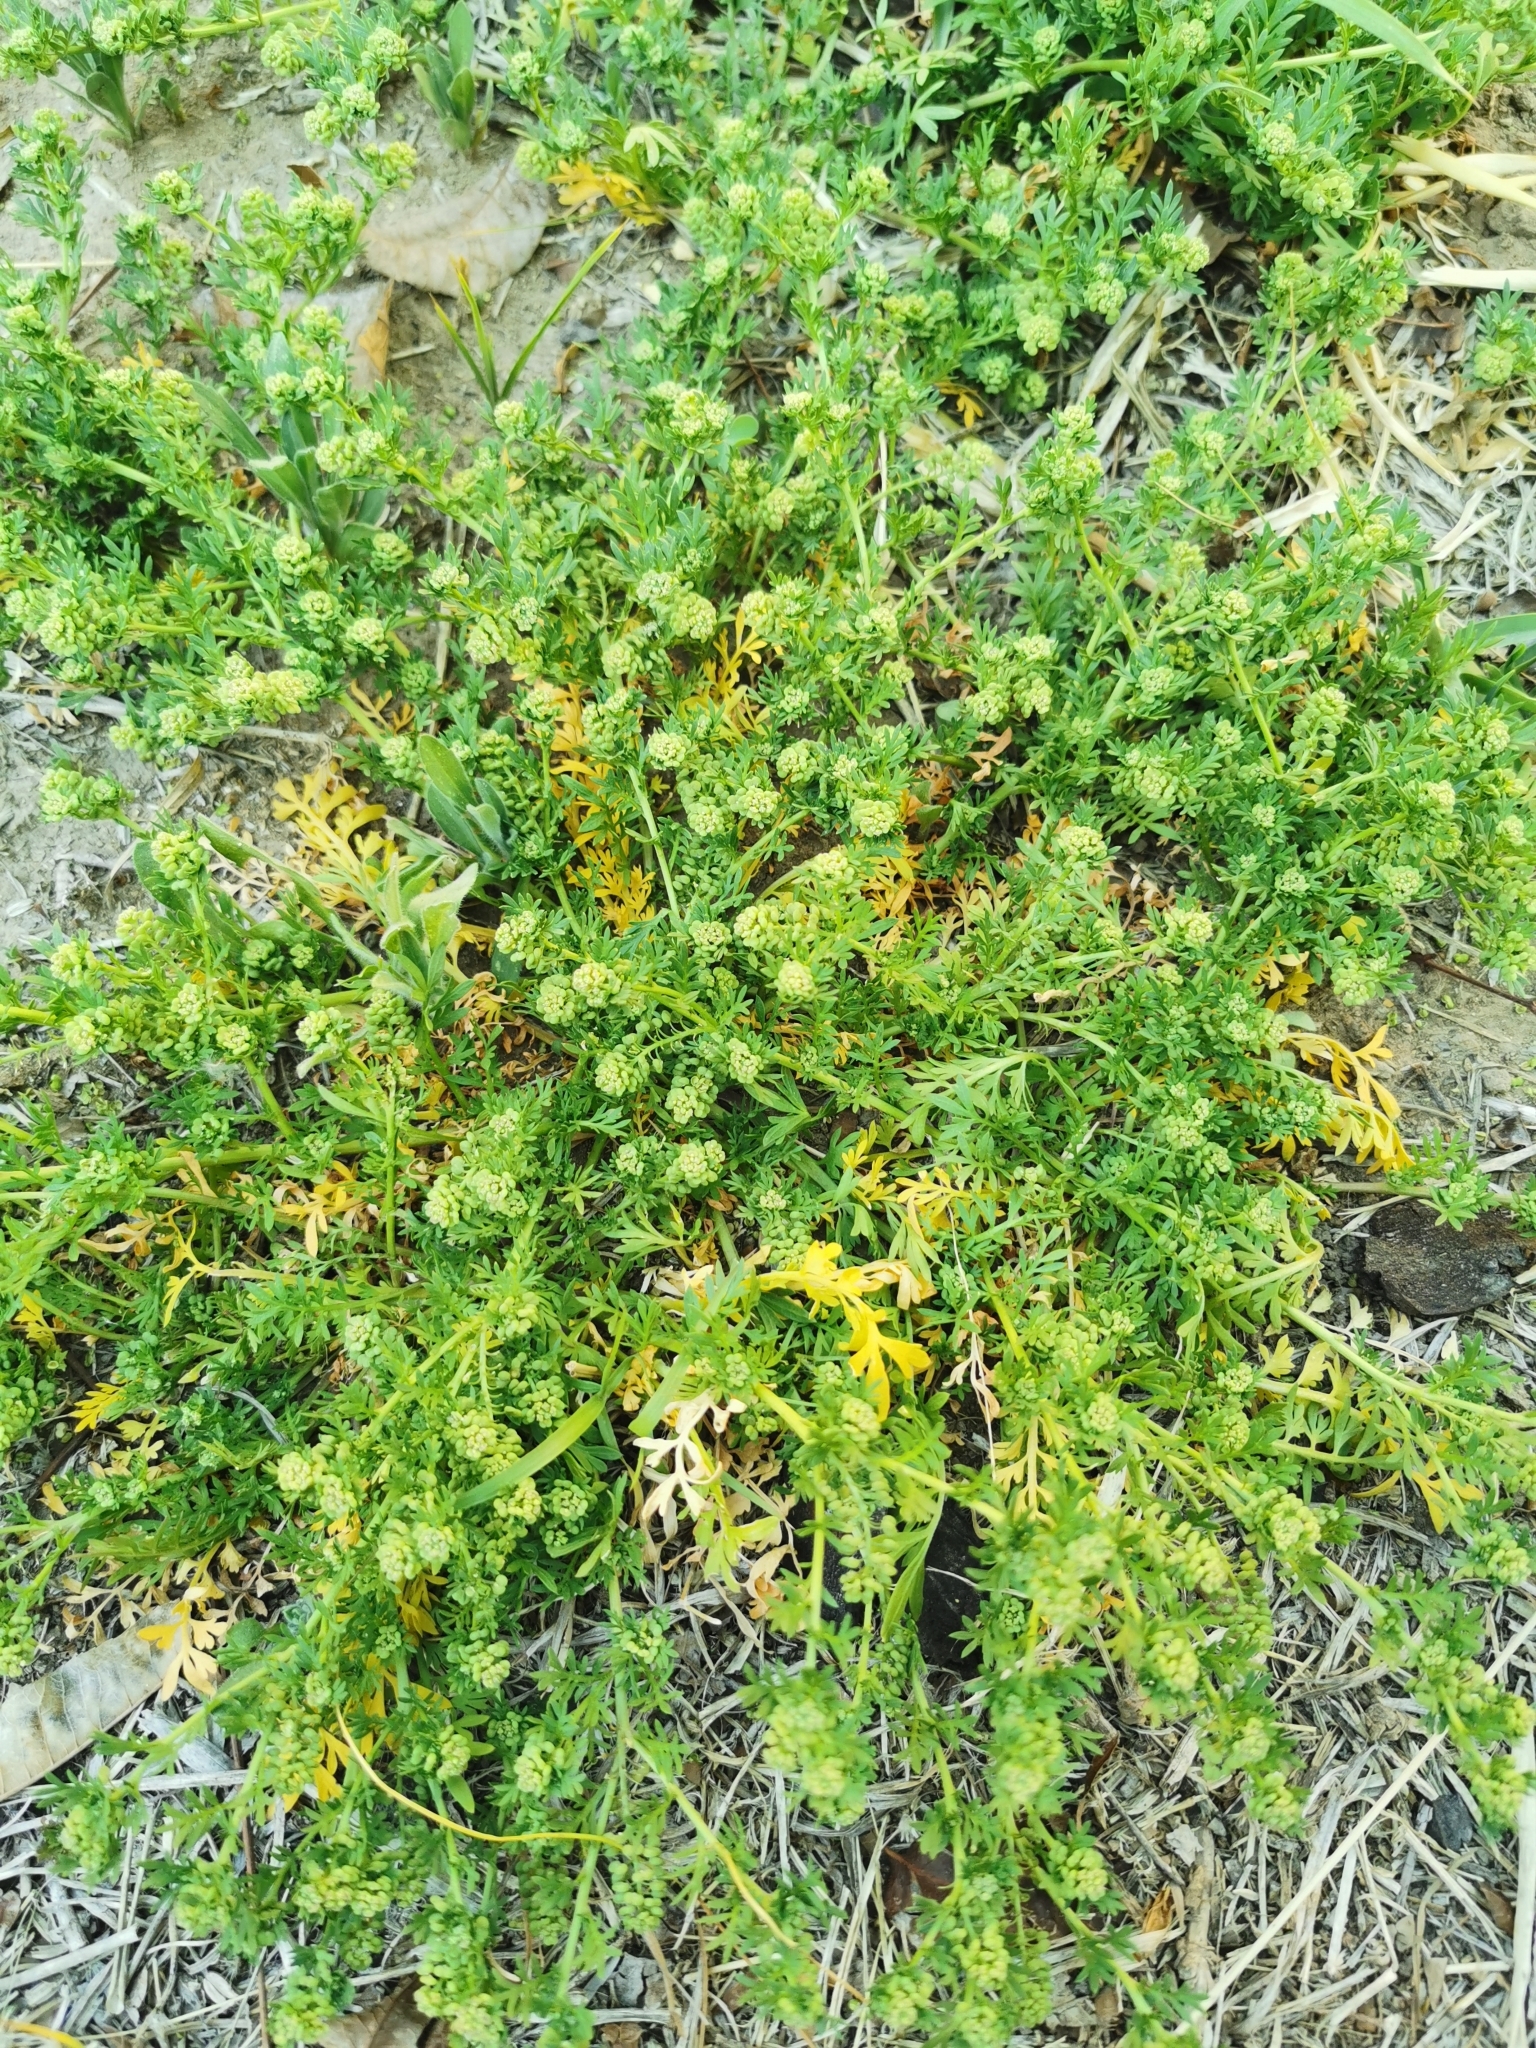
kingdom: Plantae
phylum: Tracheophyta
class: Magnoliopsida
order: Brassicales
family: Brassicaceae
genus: Lepidium
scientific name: Lepidium didymum
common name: Lesser swinecress
